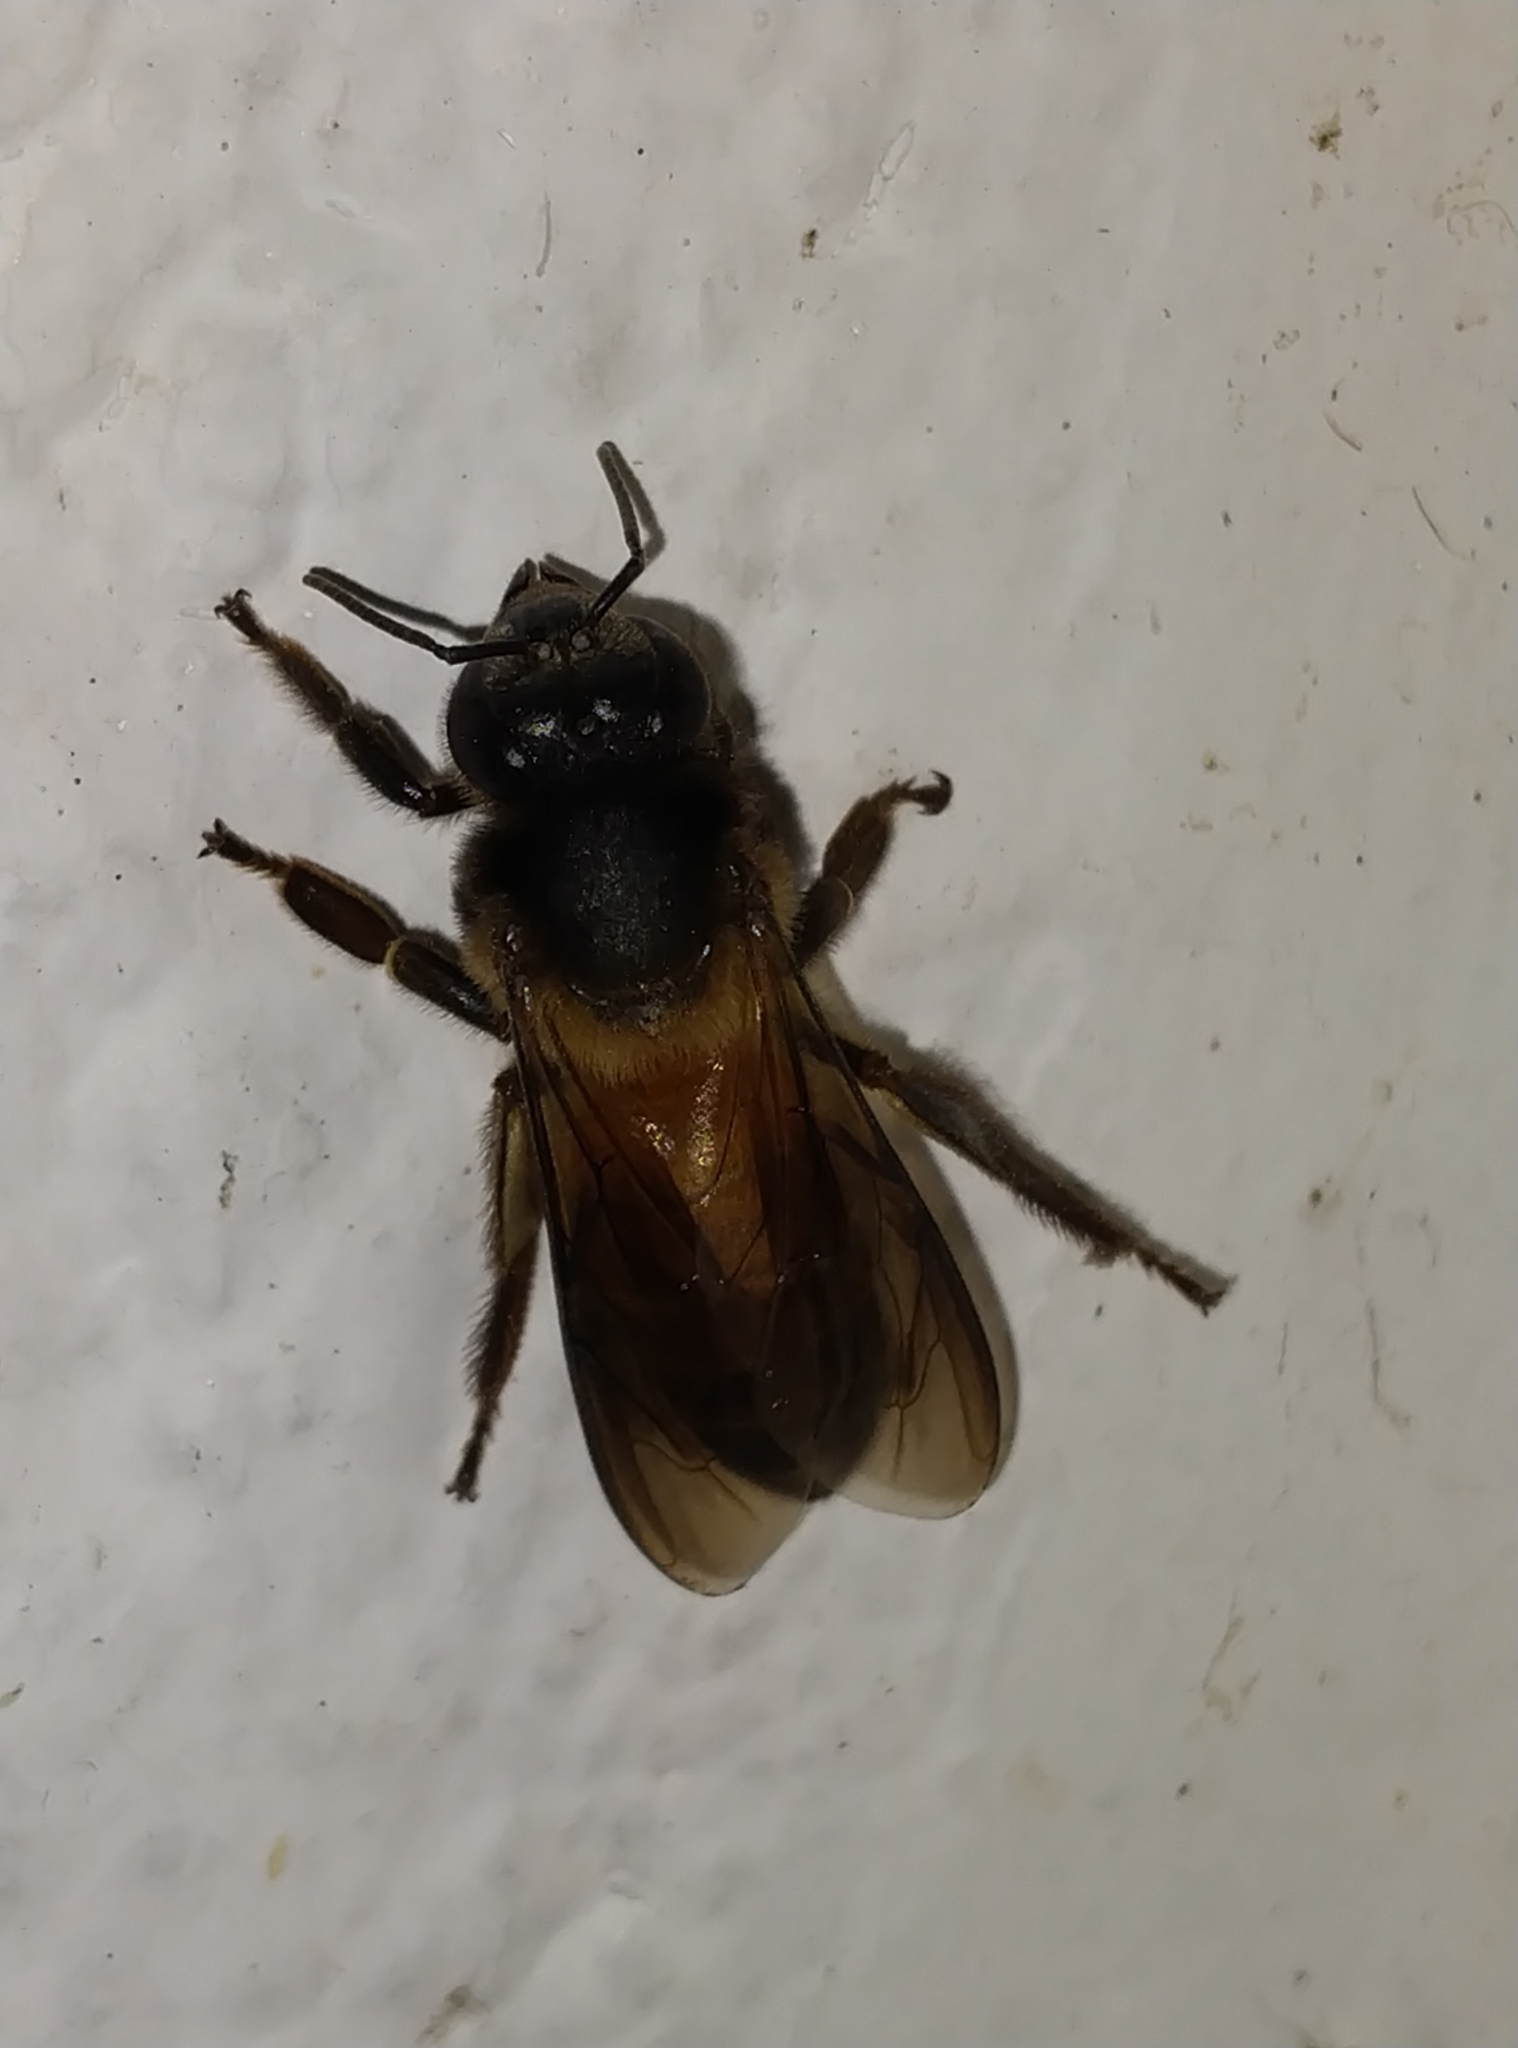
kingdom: Animalia
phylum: Arthropoda
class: Insecta
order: Hymenoptera
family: Apidae
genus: Apis
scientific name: Apis dorsata
